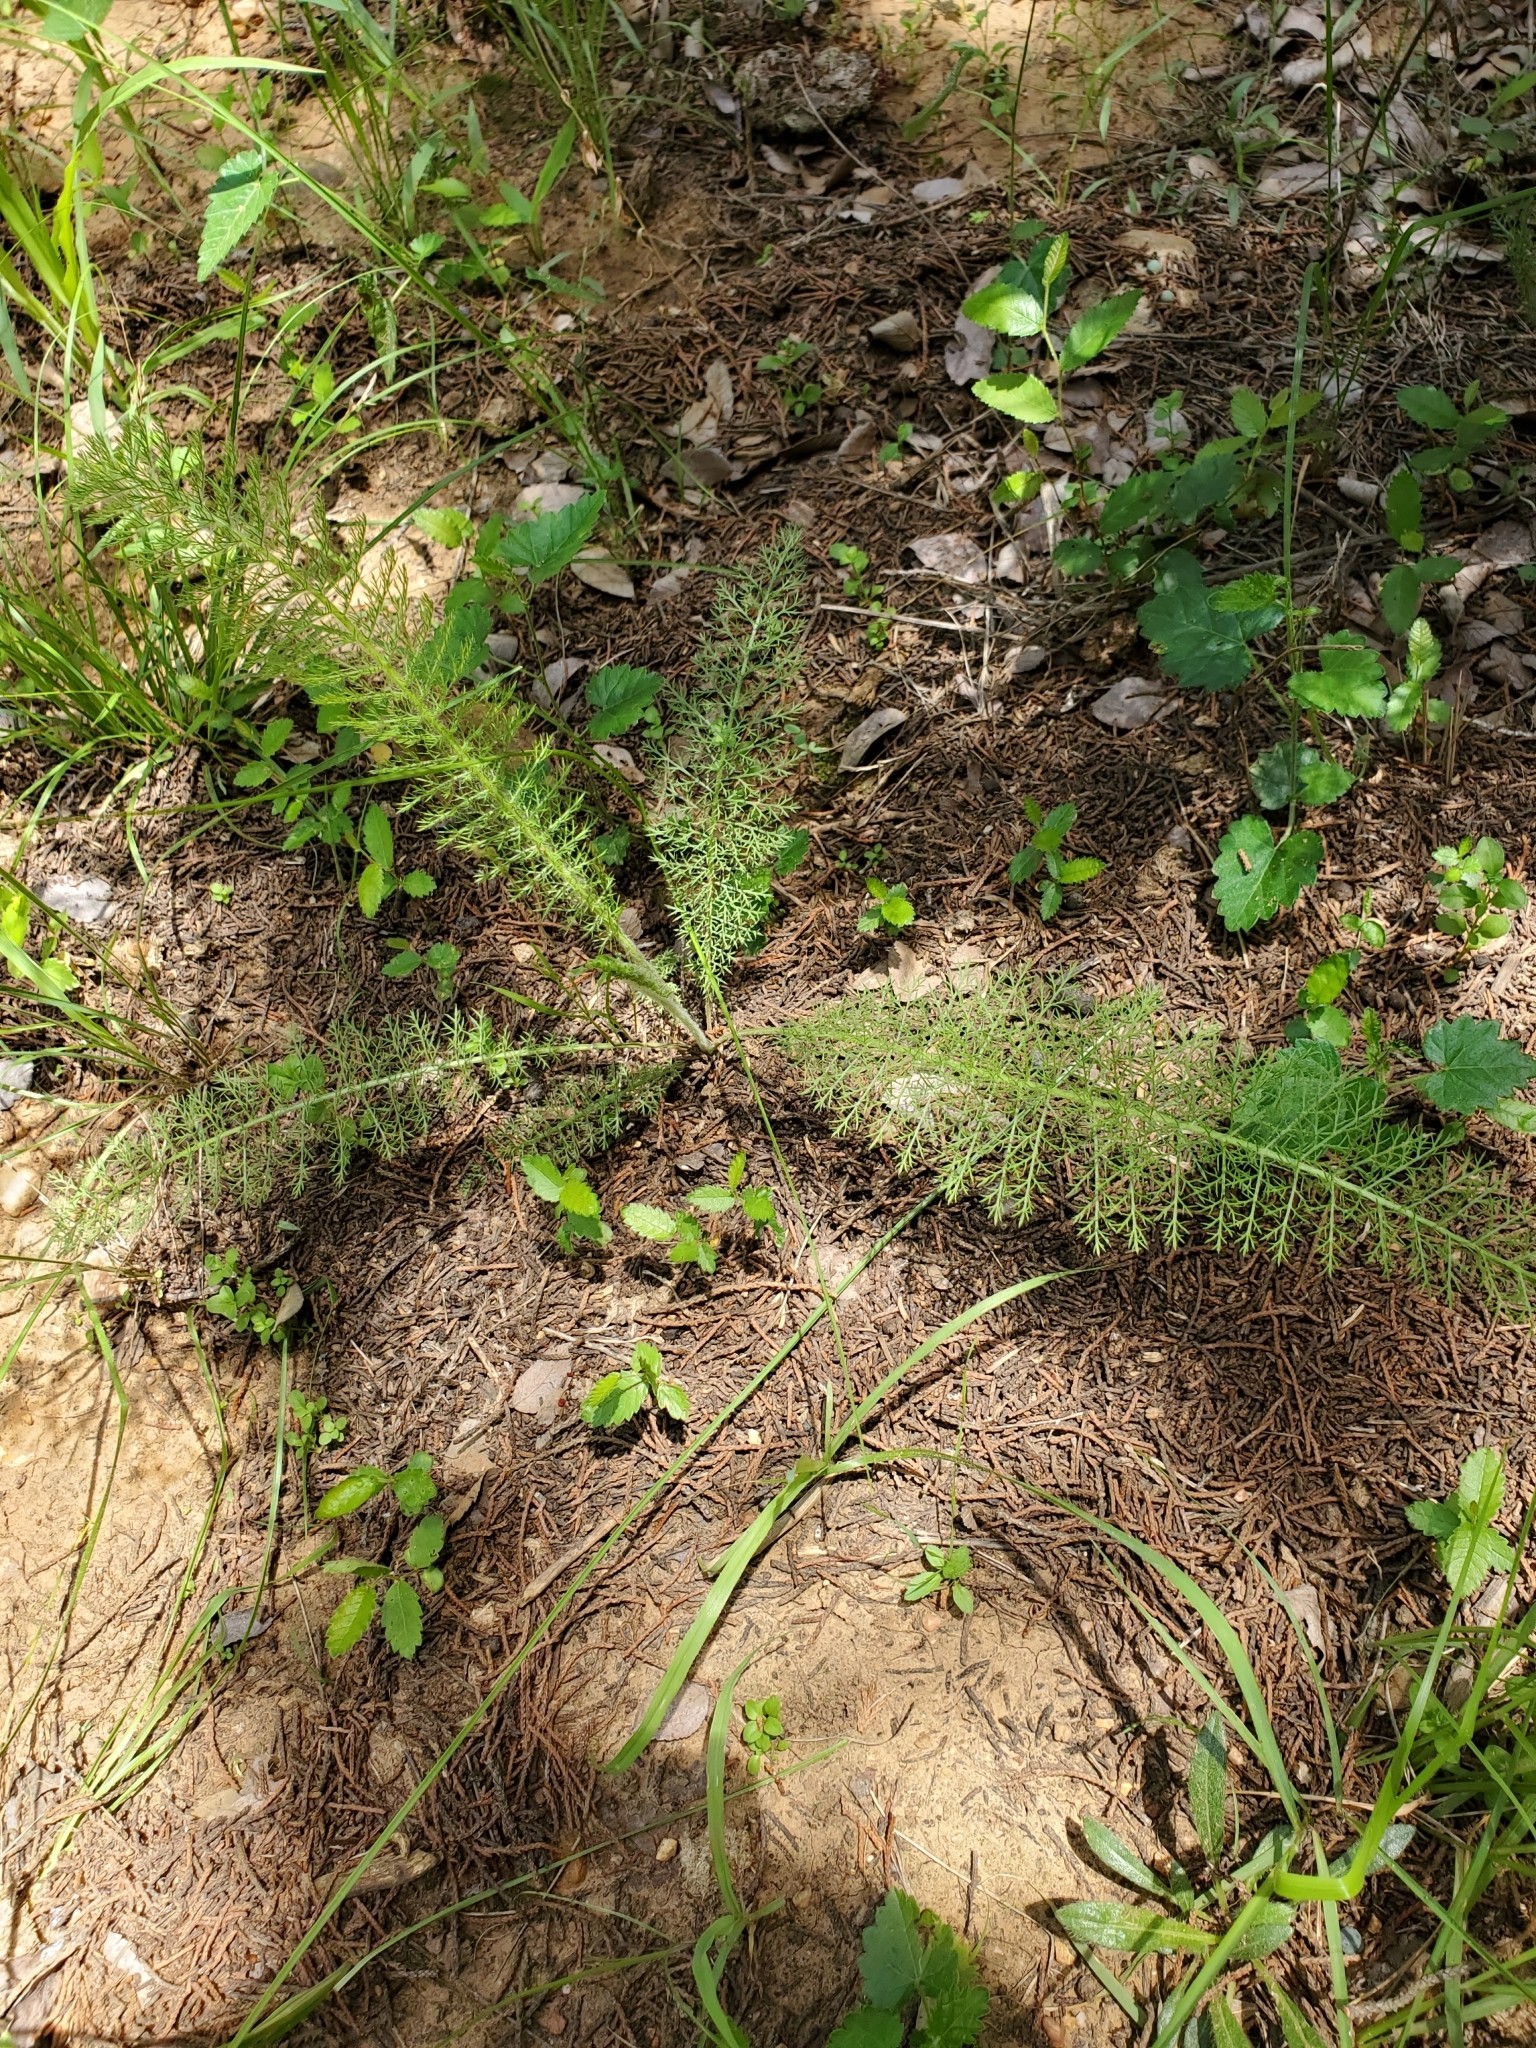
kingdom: Plantae
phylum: Tracheophyta
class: Magnoliopsida
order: Asterales
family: Asteraceae
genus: Achillea
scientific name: Achillea millefolium
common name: Yarrow
